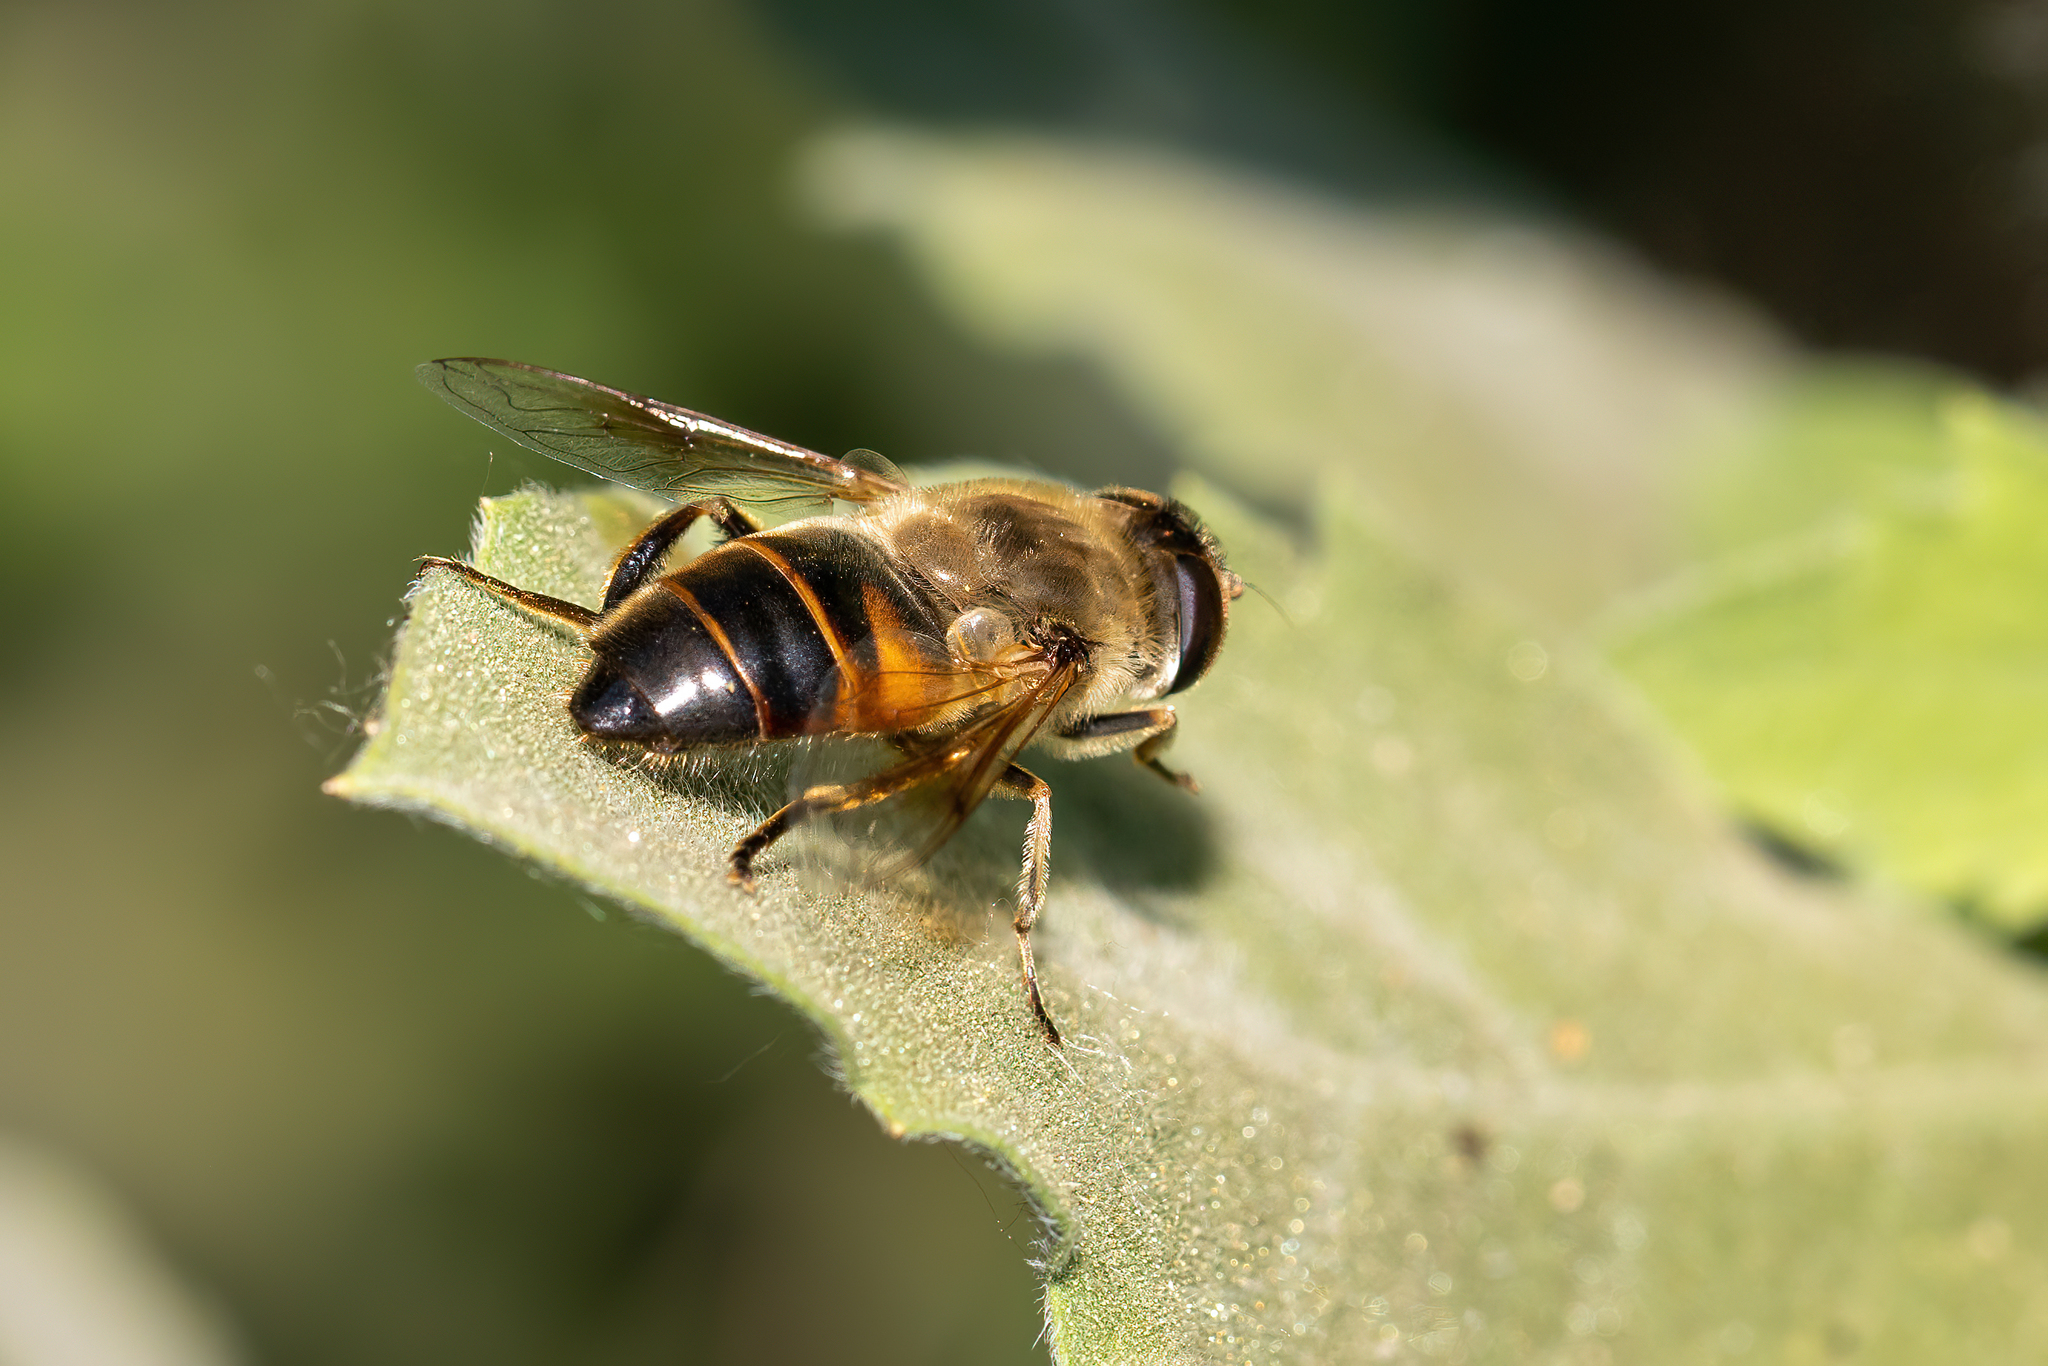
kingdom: Animalia
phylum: Arthropoda
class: Insecta
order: Diptera
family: Syrphidae
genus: Eristalis
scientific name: Eristalis tenax
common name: Drone fly
